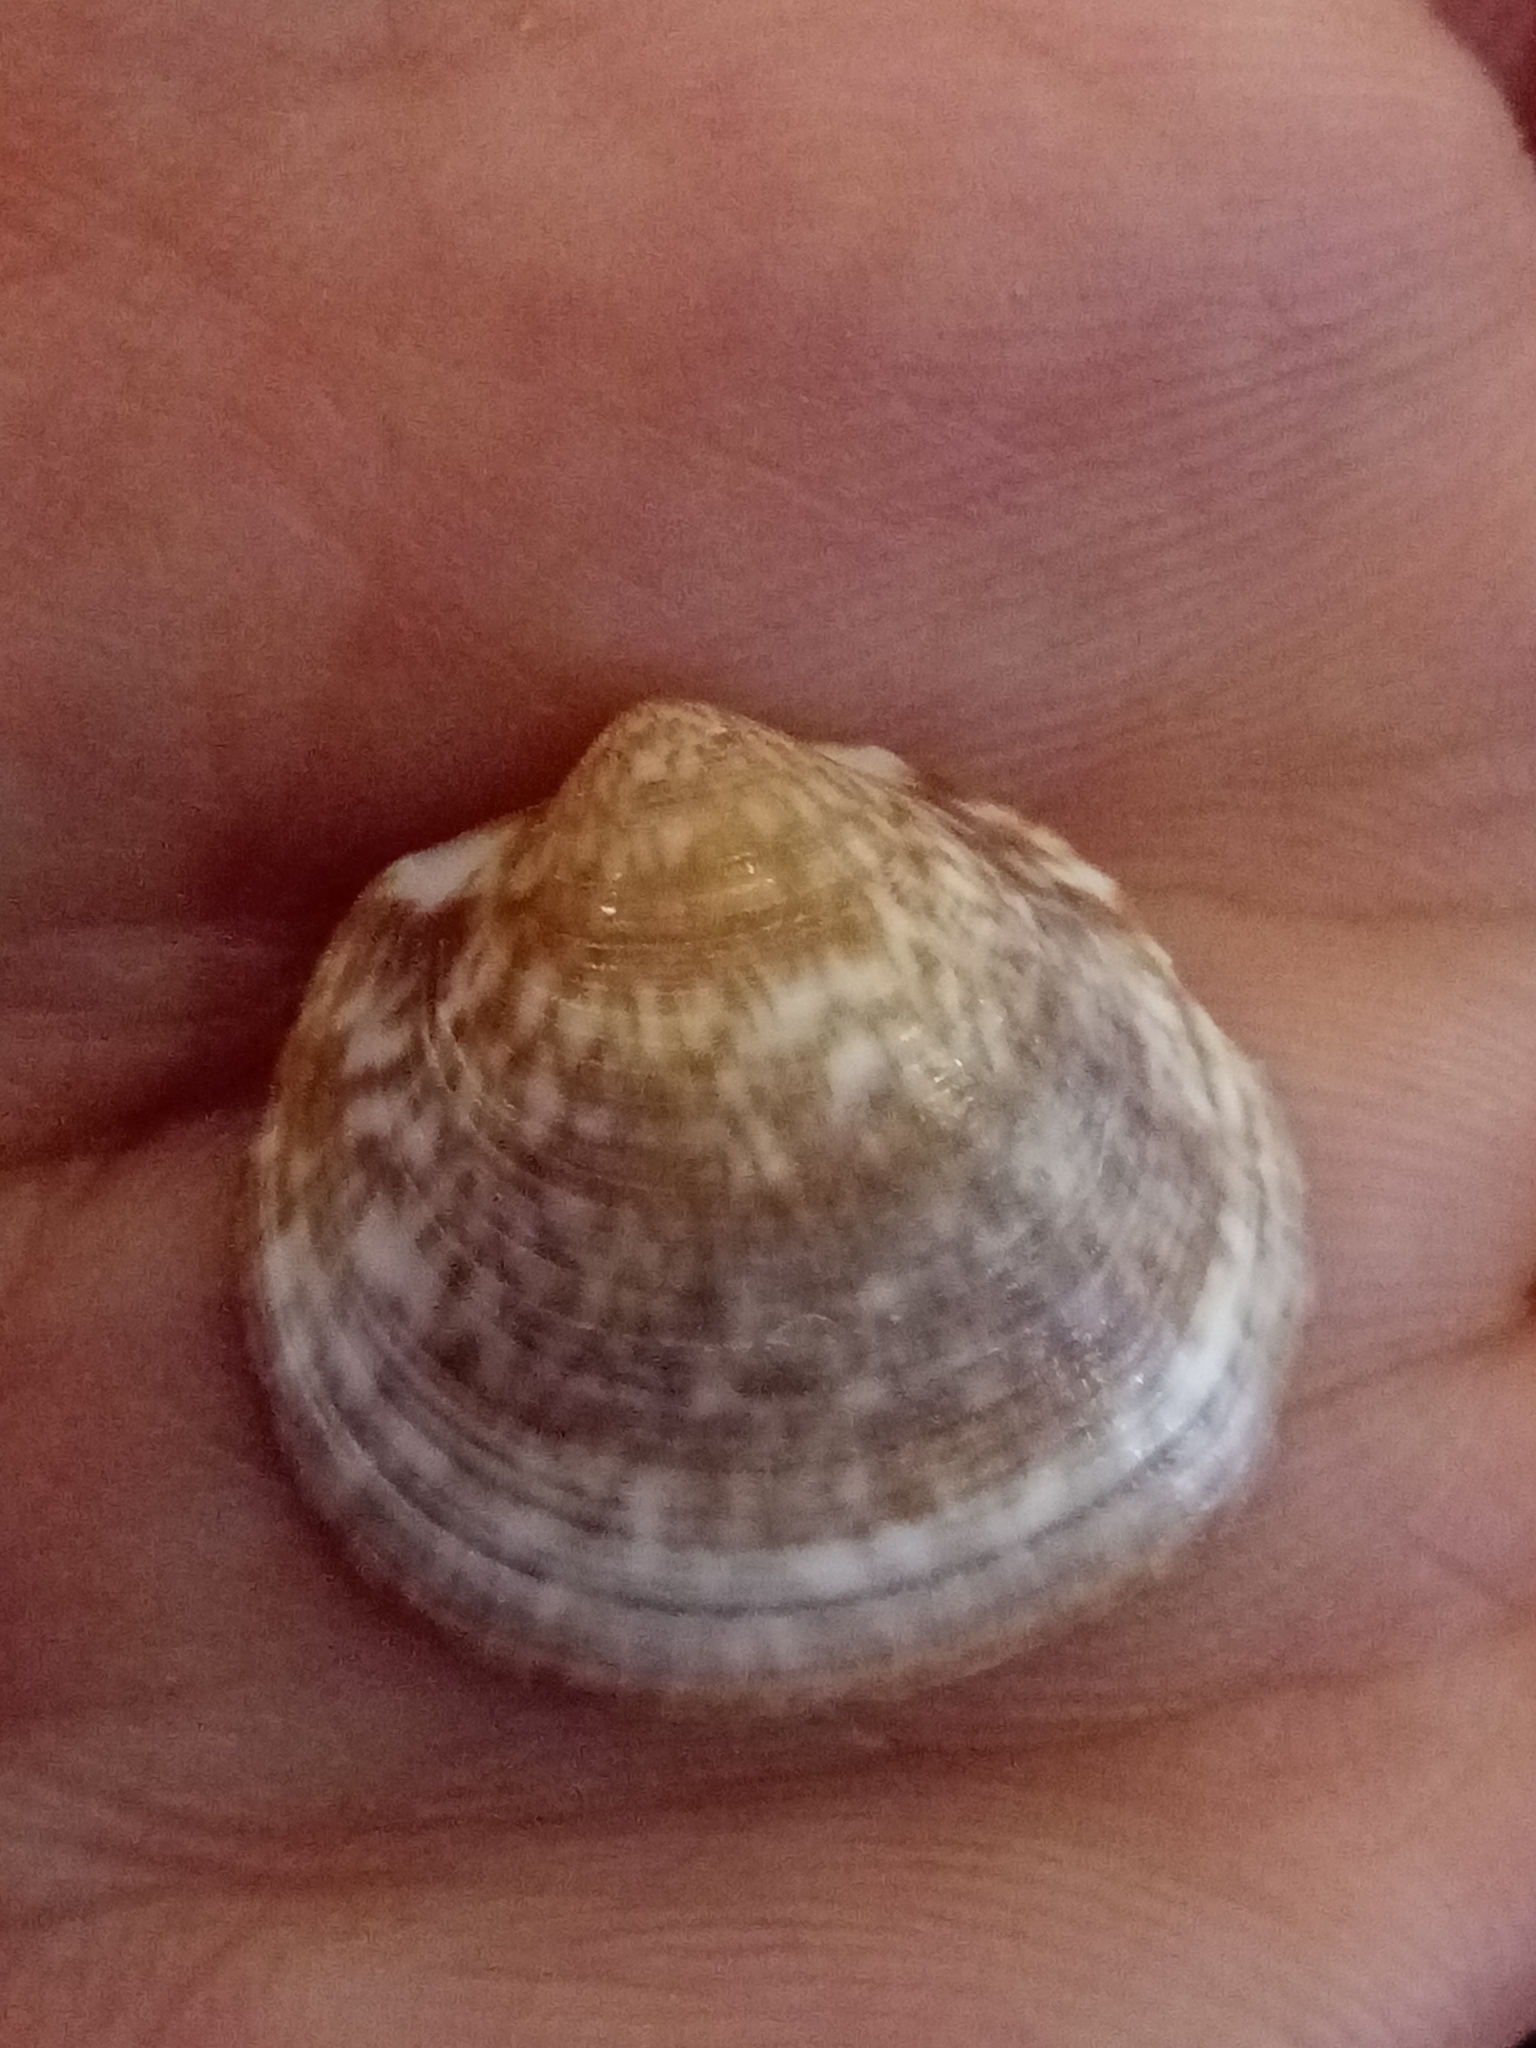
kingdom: Animalia
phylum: Mollusca
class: Bivalvia
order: Arcida
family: Glycymerididae
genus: Glycymeris
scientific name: Glycymeris glycymeris
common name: Dog-cockle
